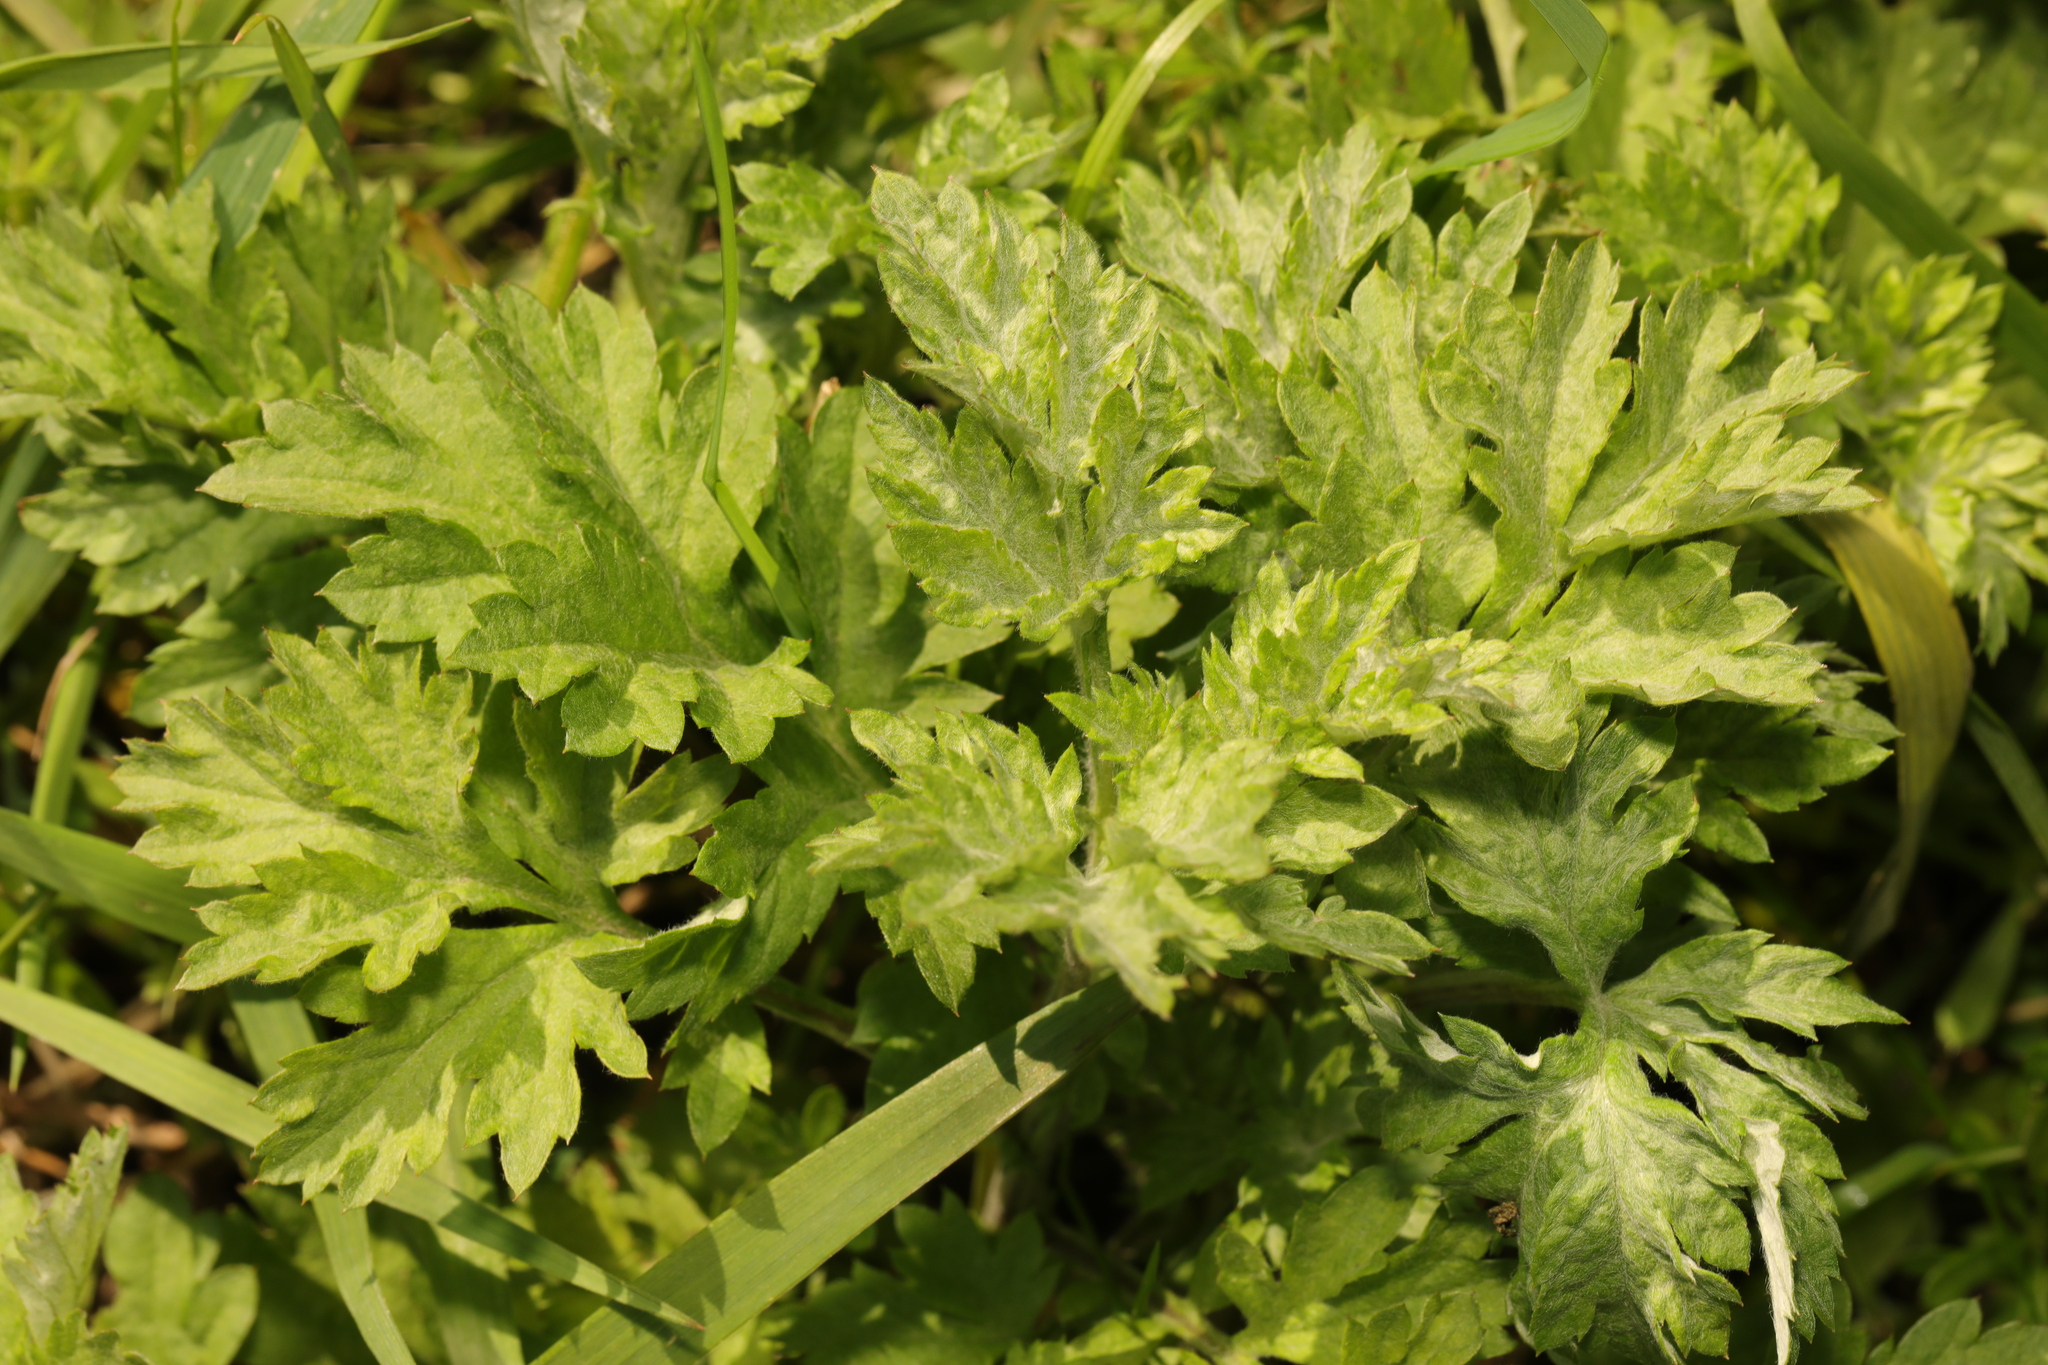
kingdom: Plantae
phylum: Tracheophyta
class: Magnoliopsida
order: Asterales
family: Asteraceae
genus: Artemisia
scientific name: Artemisia vulgaris
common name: Mugwort
